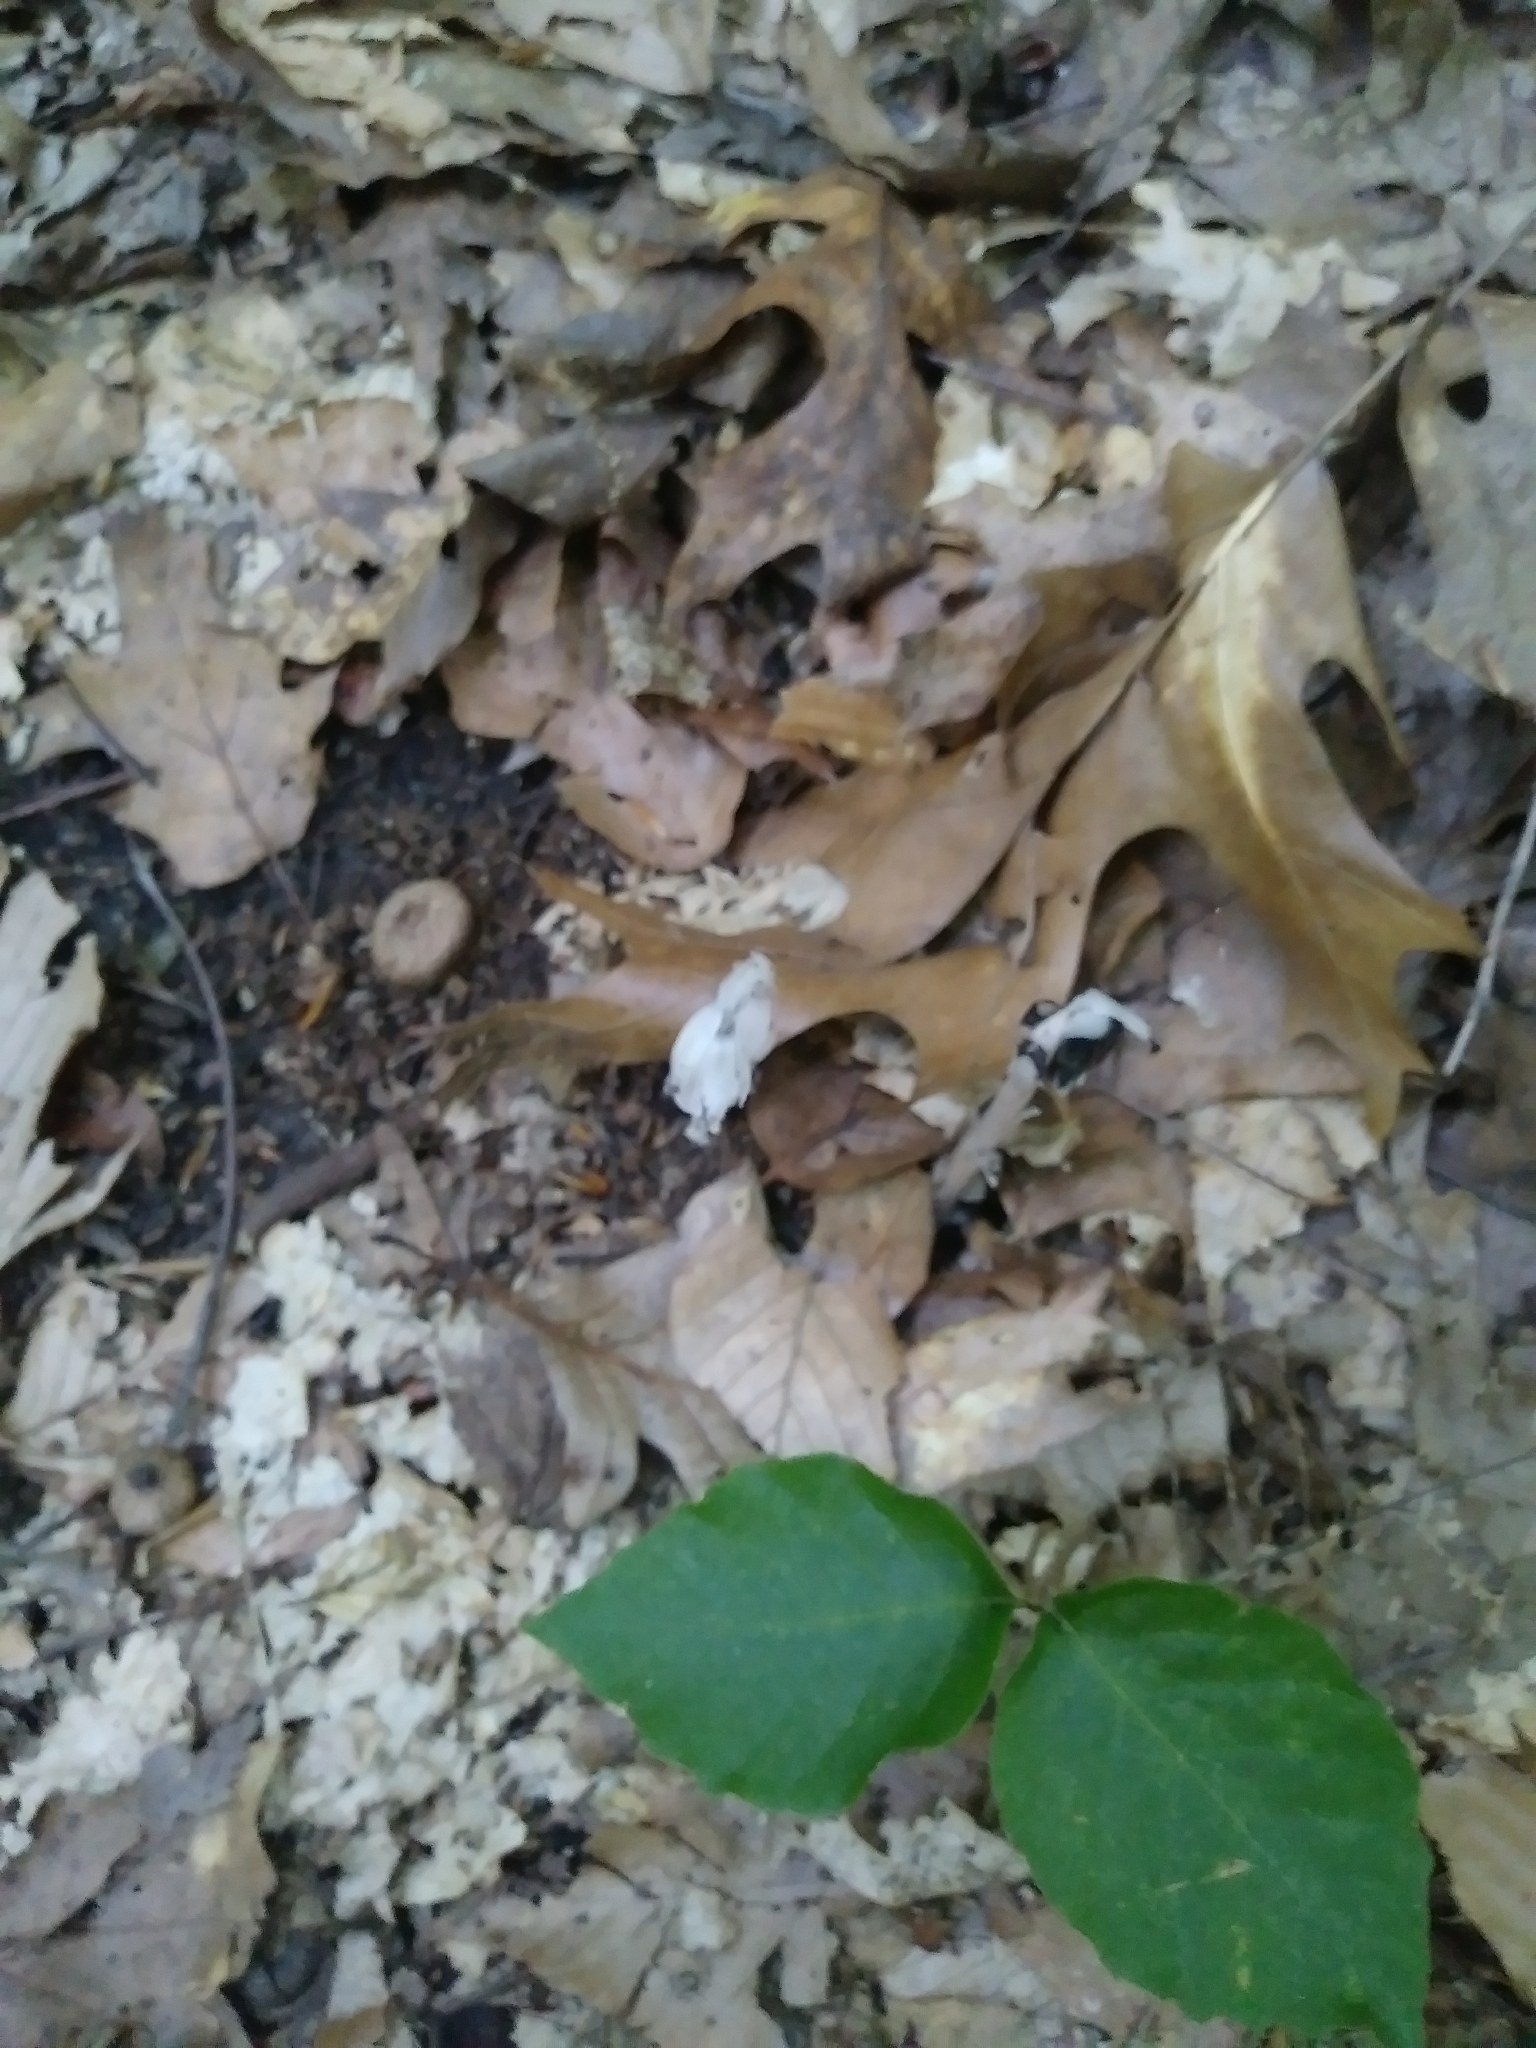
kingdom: Plantae
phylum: Tracheophyta
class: Magnoliopsida
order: Ericales
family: Ericaceae
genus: Monotropa
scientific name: Monotropa uniflora
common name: Convulsion root
